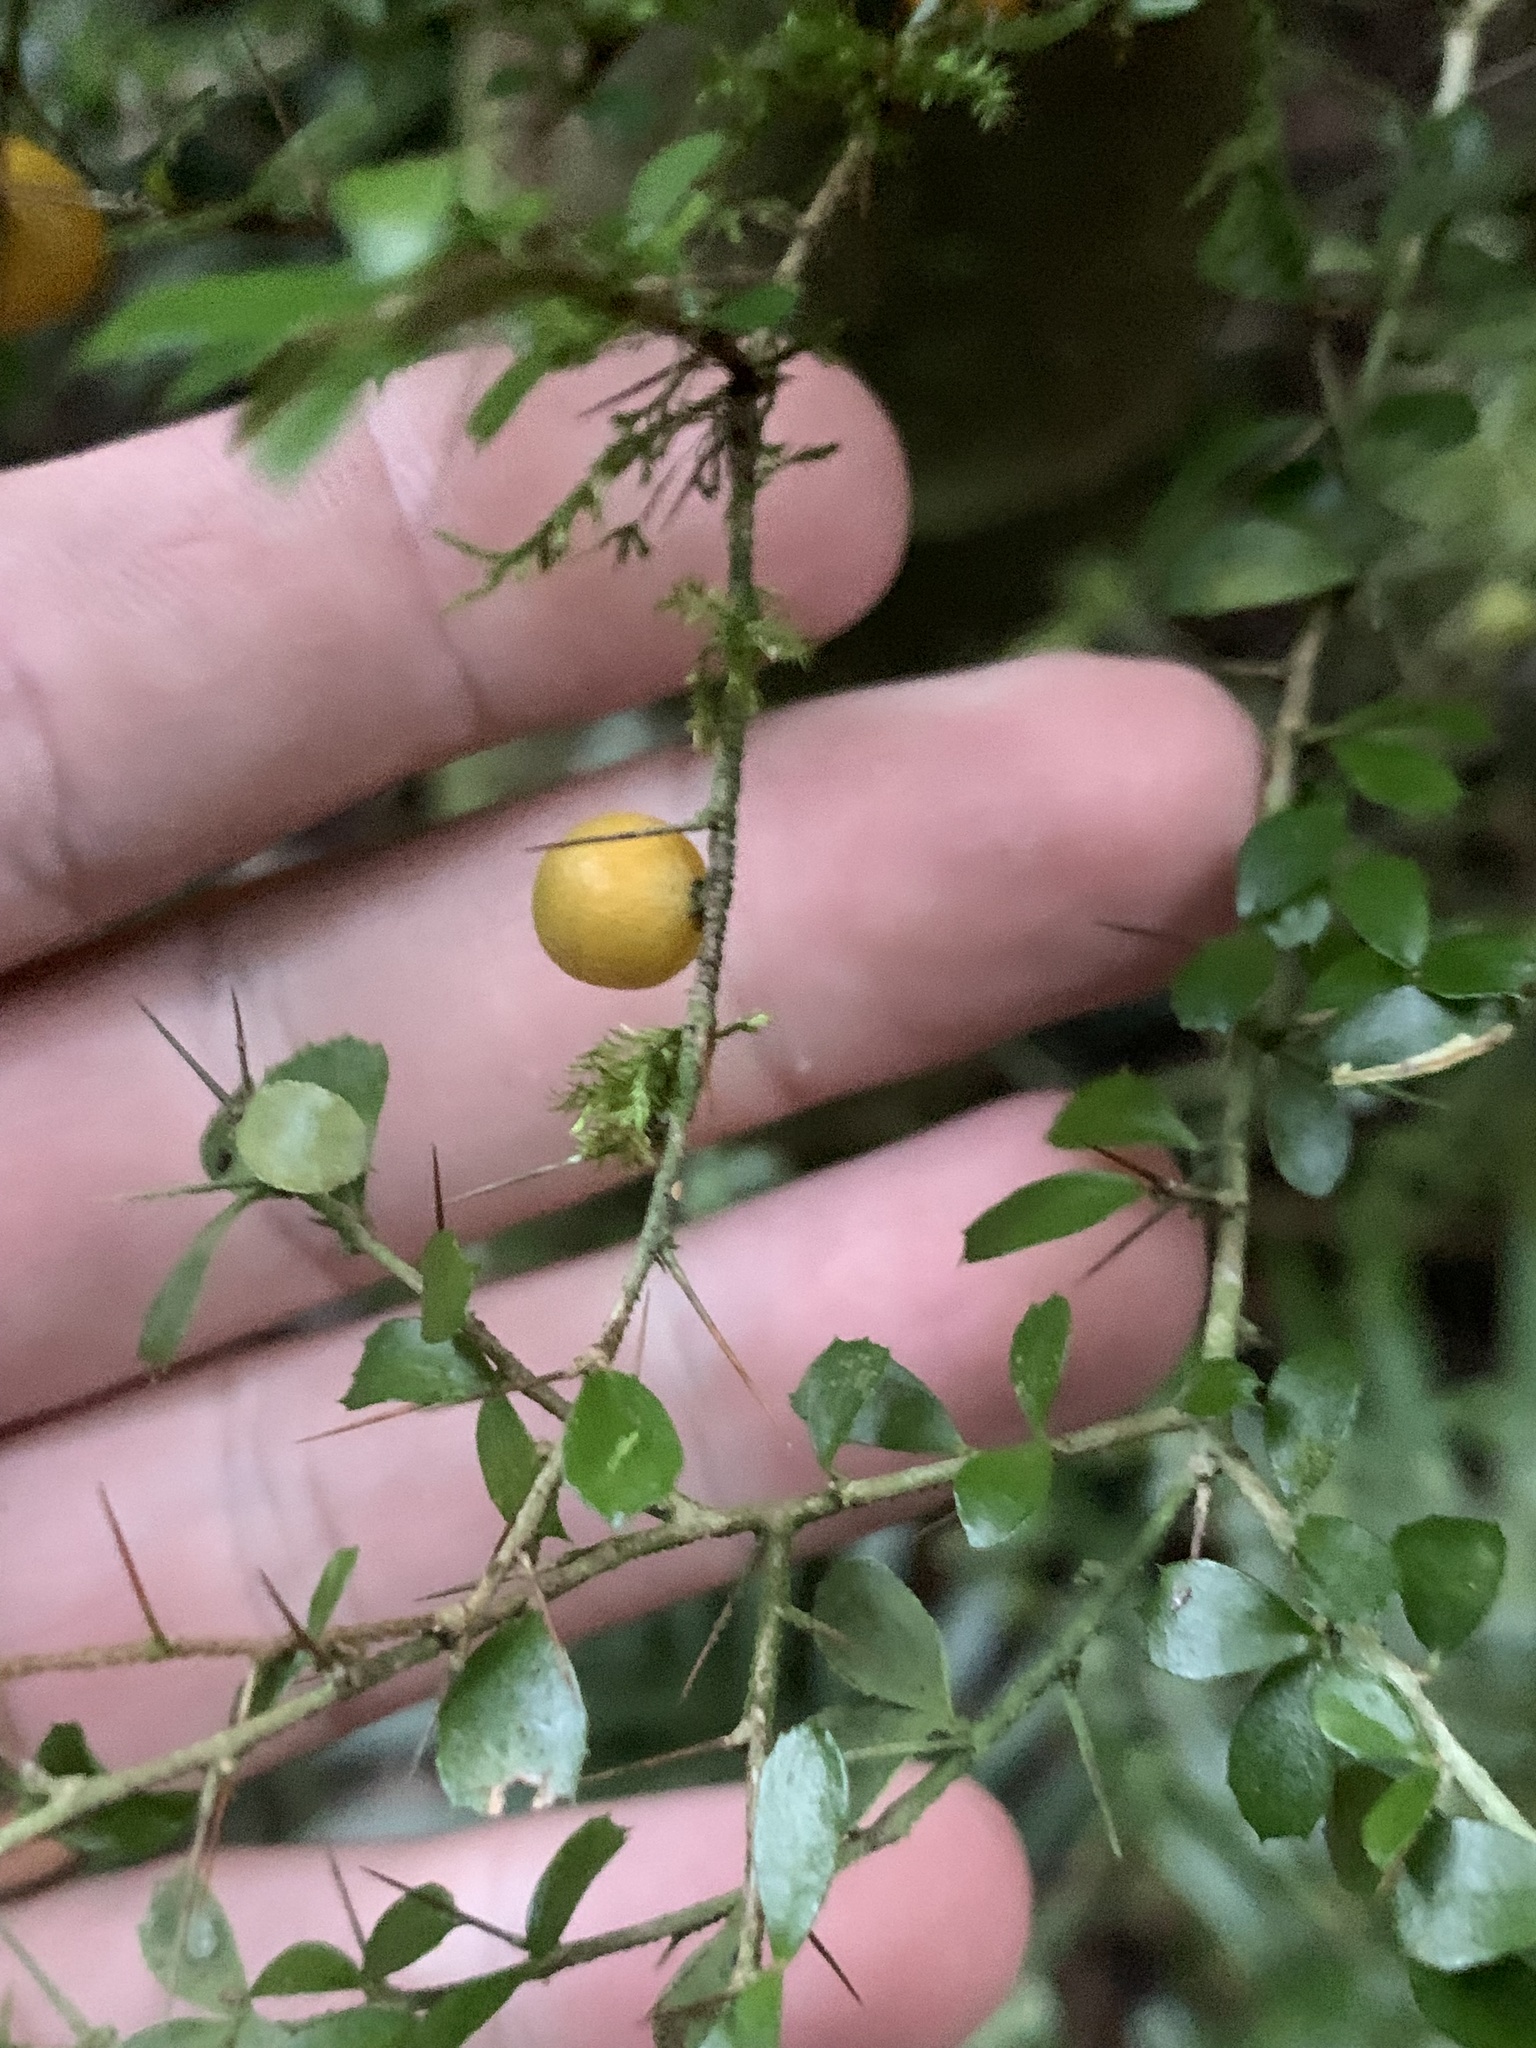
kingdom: Plantae
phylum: Tracheophyta
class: Magnoliopsida
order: Apiales
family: Pittosporaceae
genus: Pittosporum
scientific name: Pittosporum multiflorum
